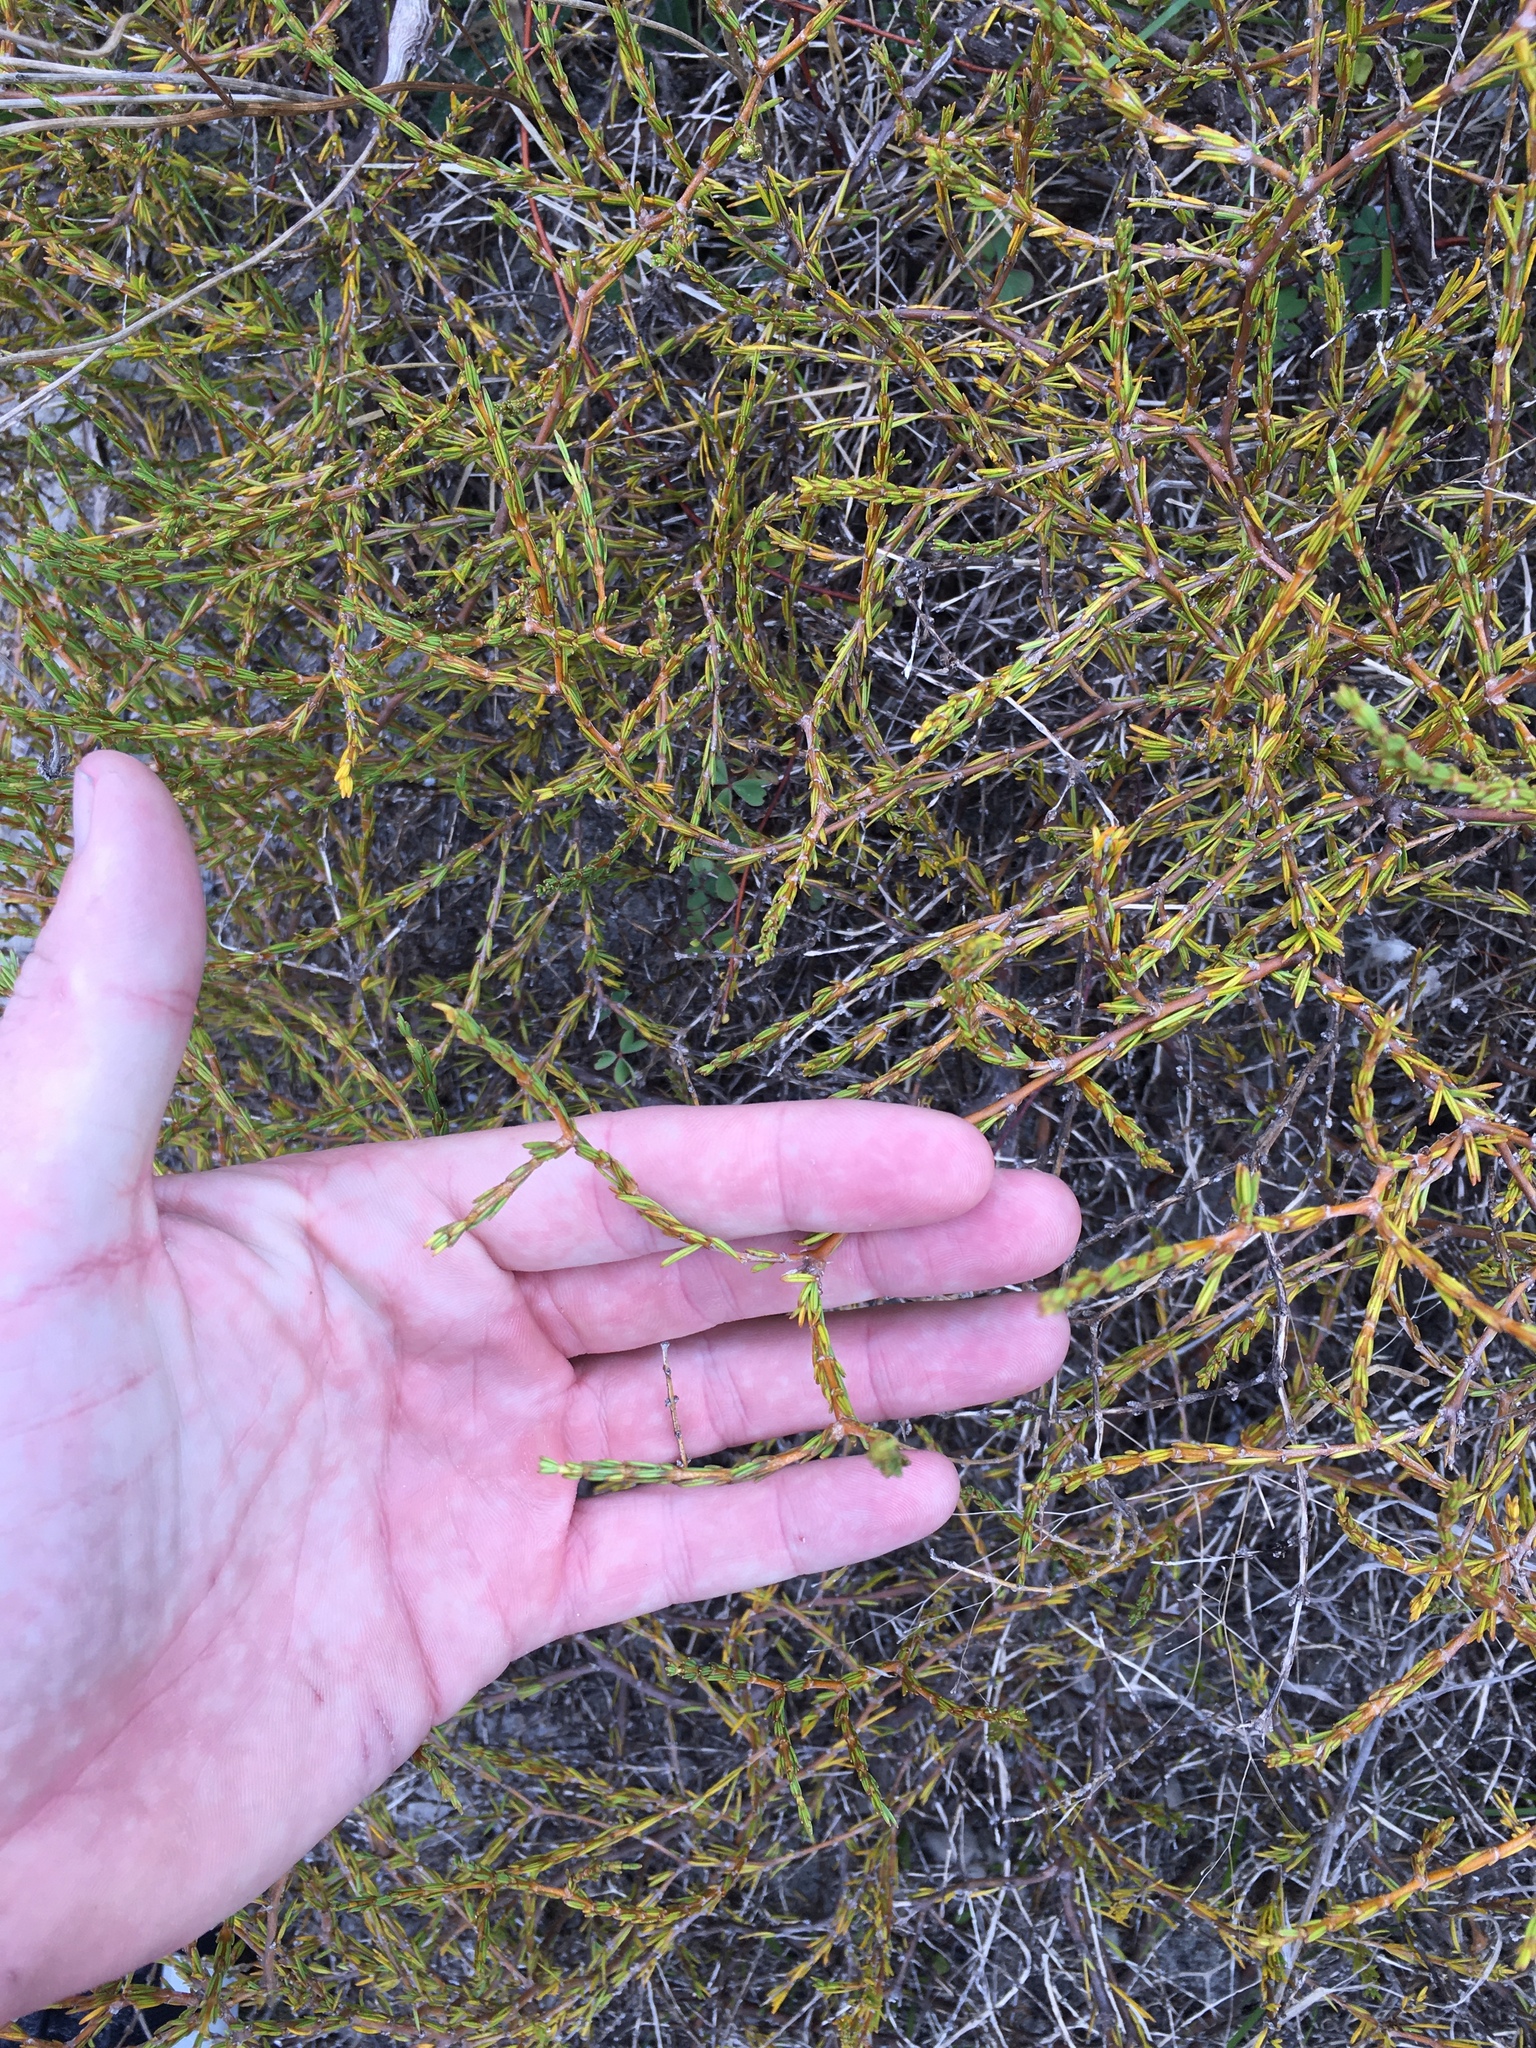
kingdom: Plantae
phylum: Tracheophyta
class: Magnoliopsida
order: Gentianales
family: Rubiaceae
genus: Coprosma
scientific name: Coprosma acerosa
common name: Sand coprosma
